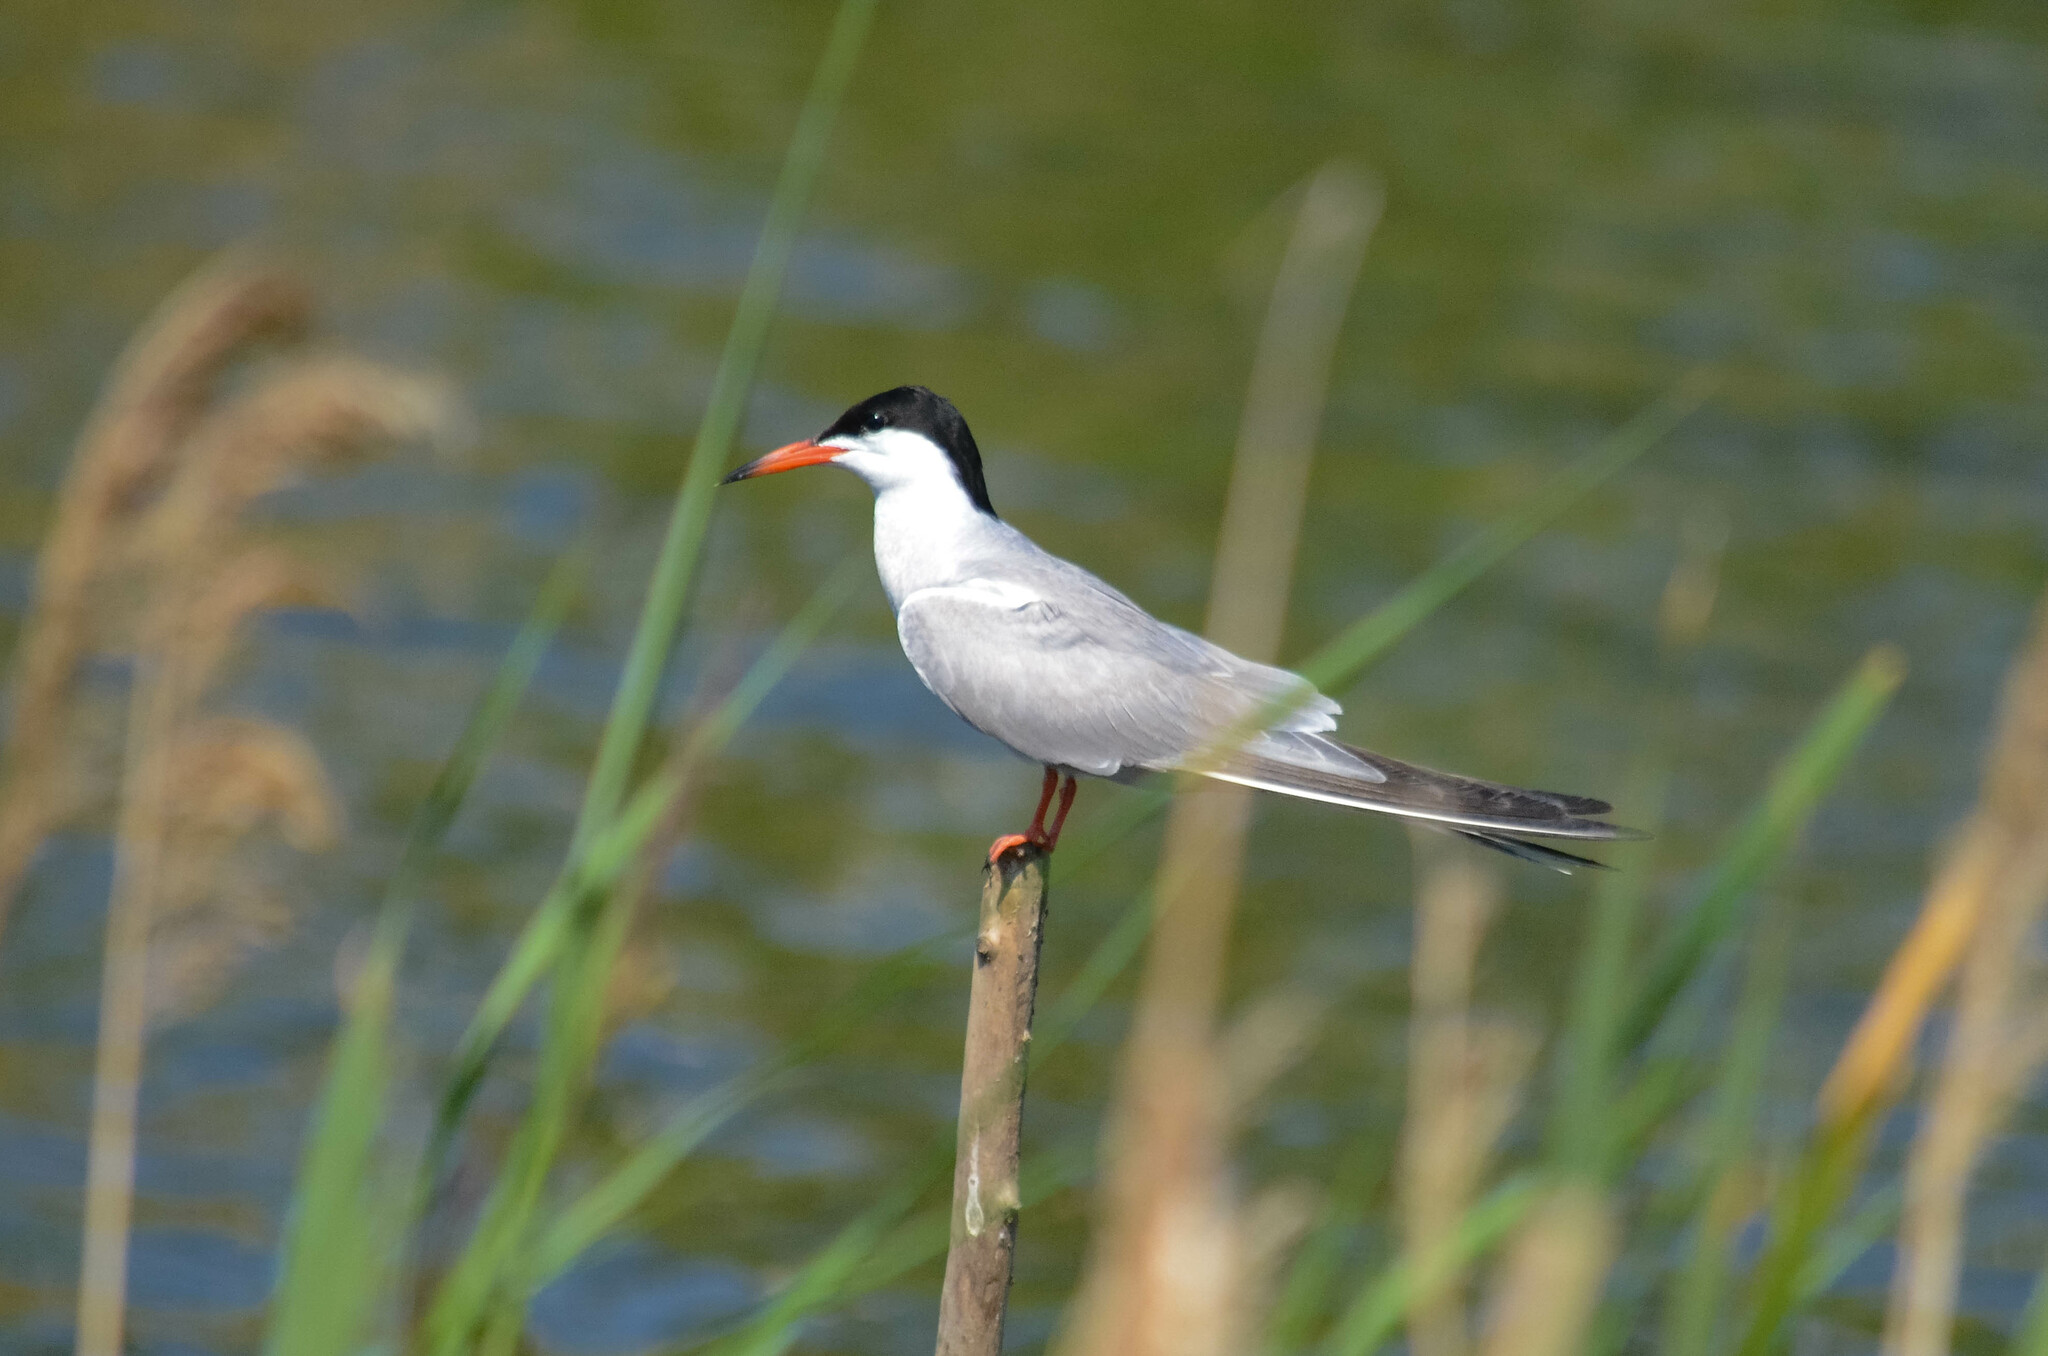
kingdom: Animalia
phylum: Chordata
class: Aves
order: Charadriiformes
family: Laridae
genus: Sterna
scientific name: Sterna hirundo
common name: Common tern
